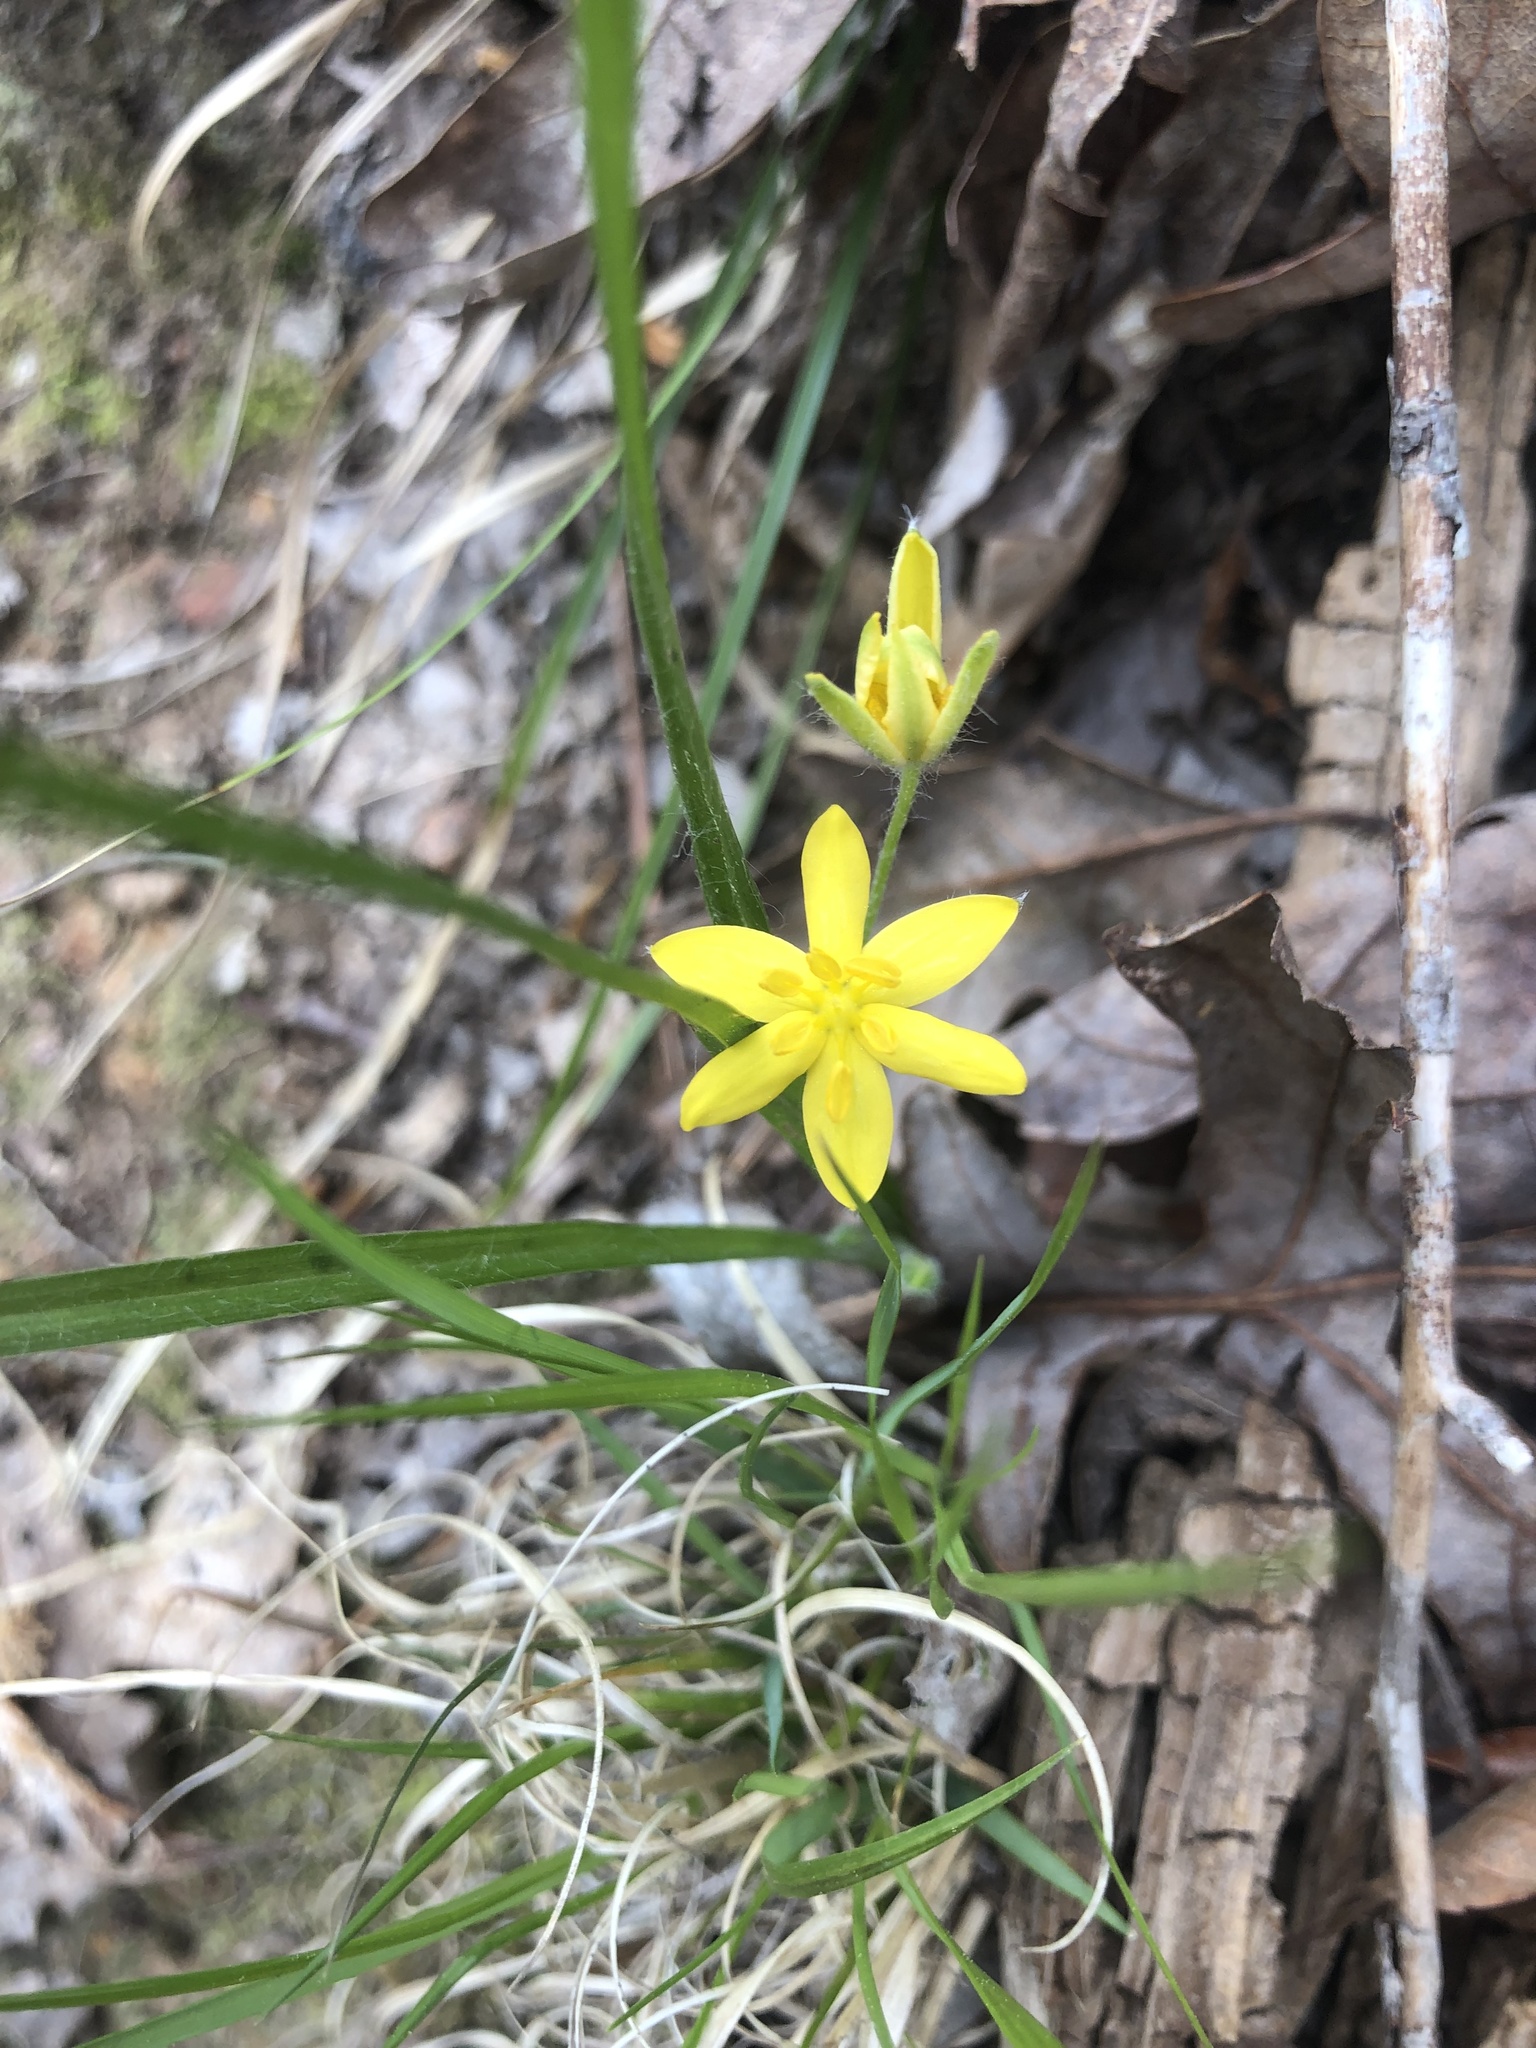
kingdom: Plantae
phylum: Tracheophyta
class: Liliopsida
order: Asparagales
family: Hypoxidaceae
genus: Hypoxis
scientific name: Hypoxis hirsuta
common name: Common goldstar
